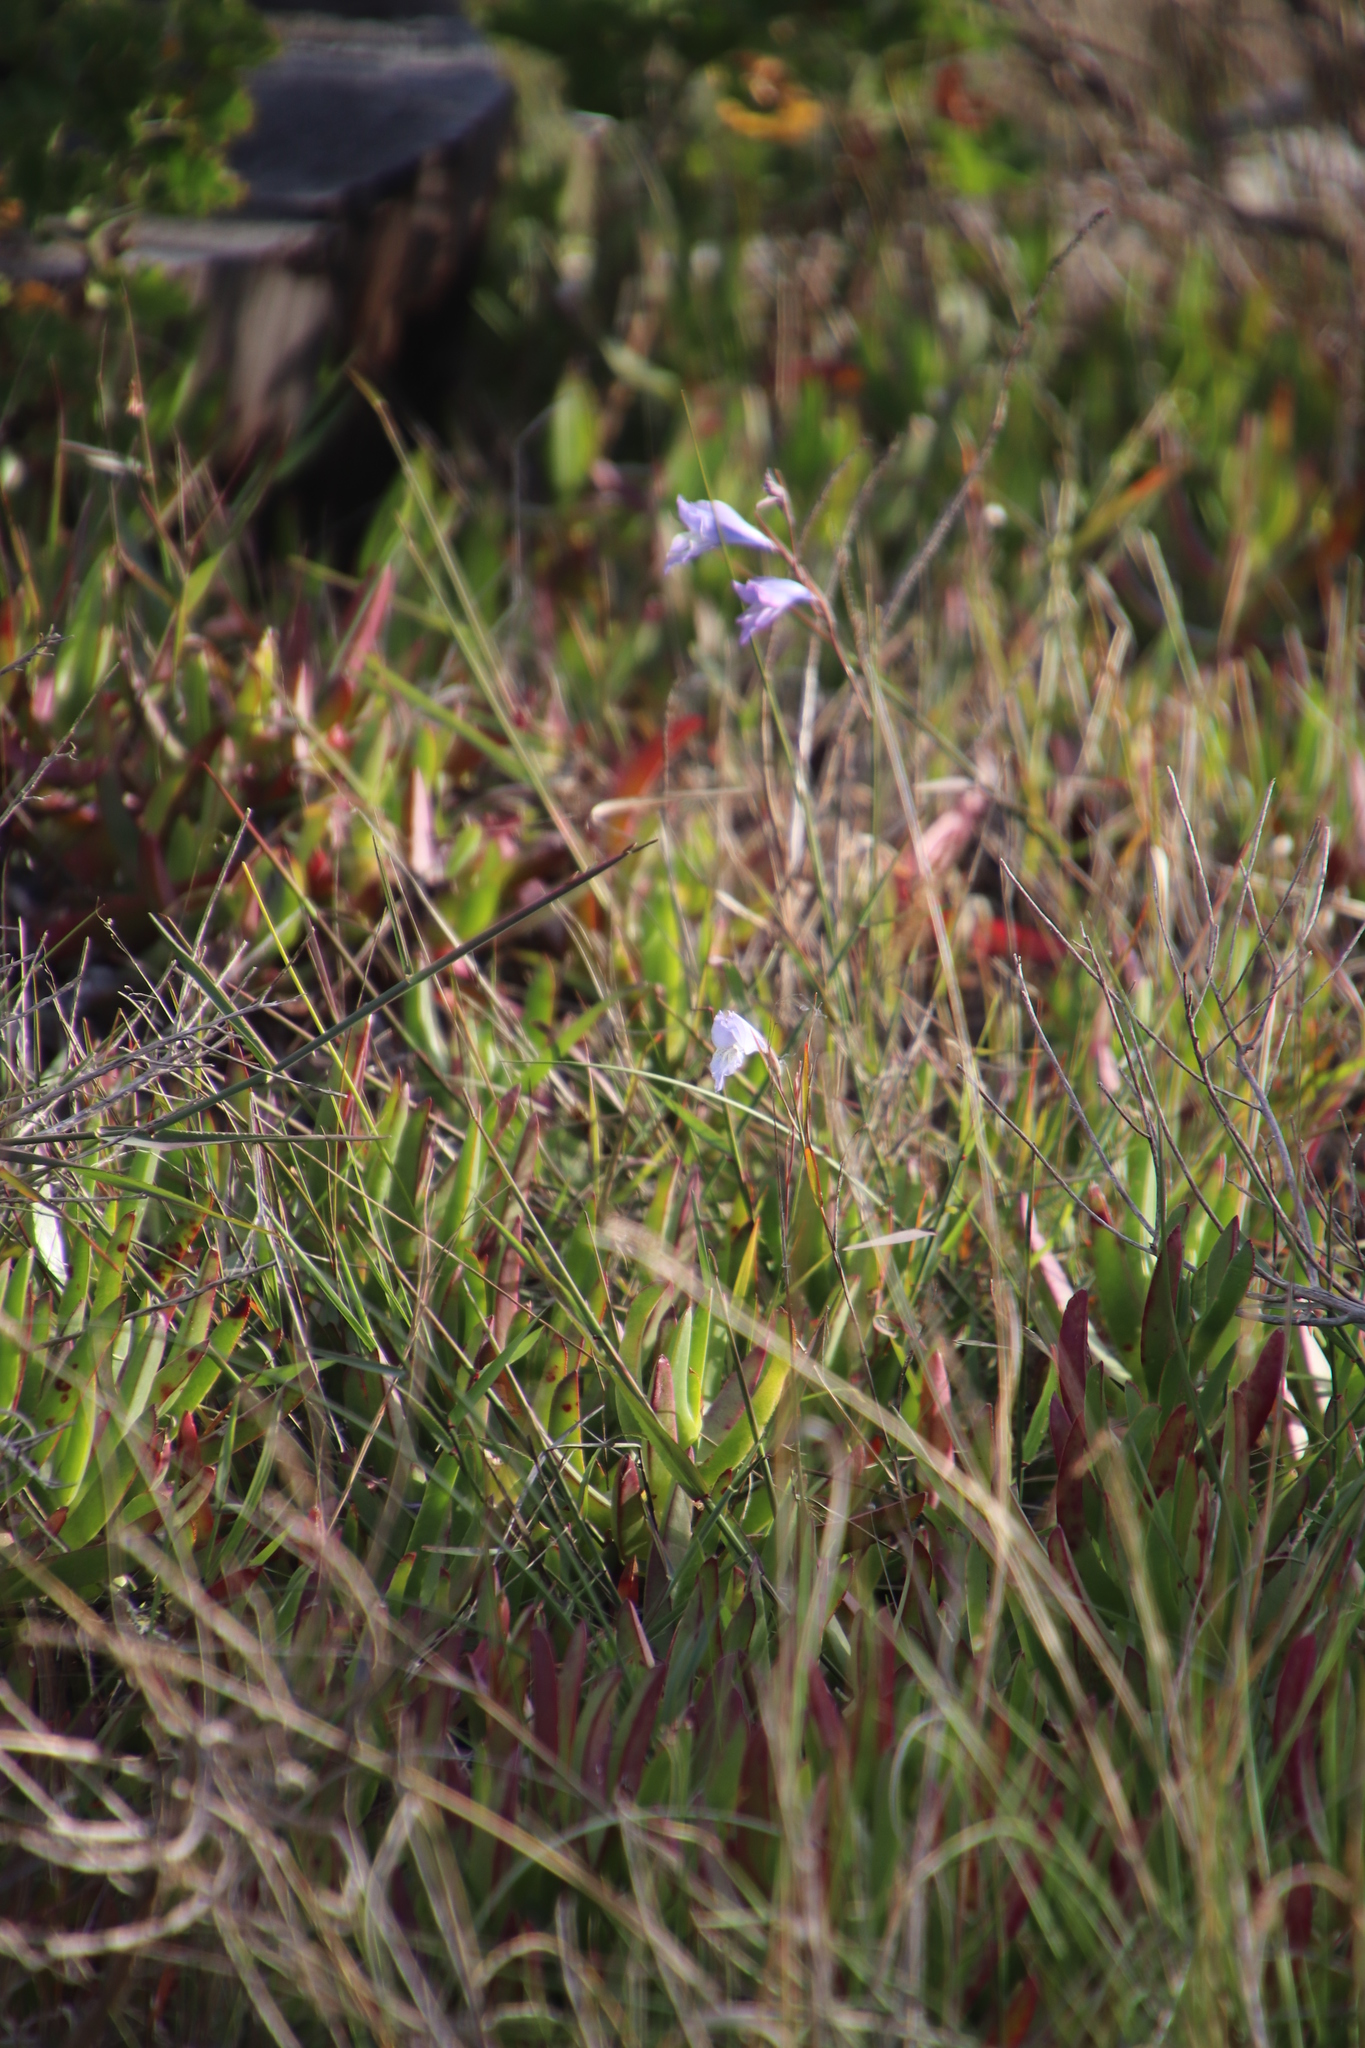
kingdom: Plantae
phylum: Tracheophyta
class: Liliopsida
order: Asparagales
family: Iridaceae
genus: Gladiolus
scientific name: Gladiolus gracilis
